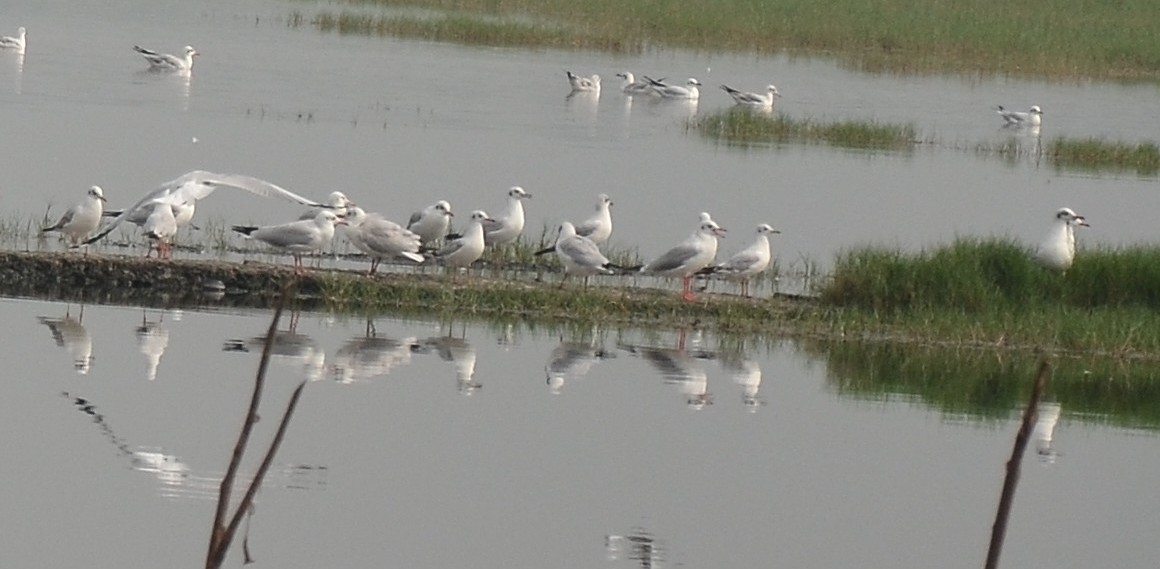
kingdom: Animalia
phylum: Chordata
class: Aves
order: Charadriiformes
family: Laridae
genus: Chroicocephalus
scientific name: Chroicocephalus brunnicephalus
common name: Brown-headed gull
